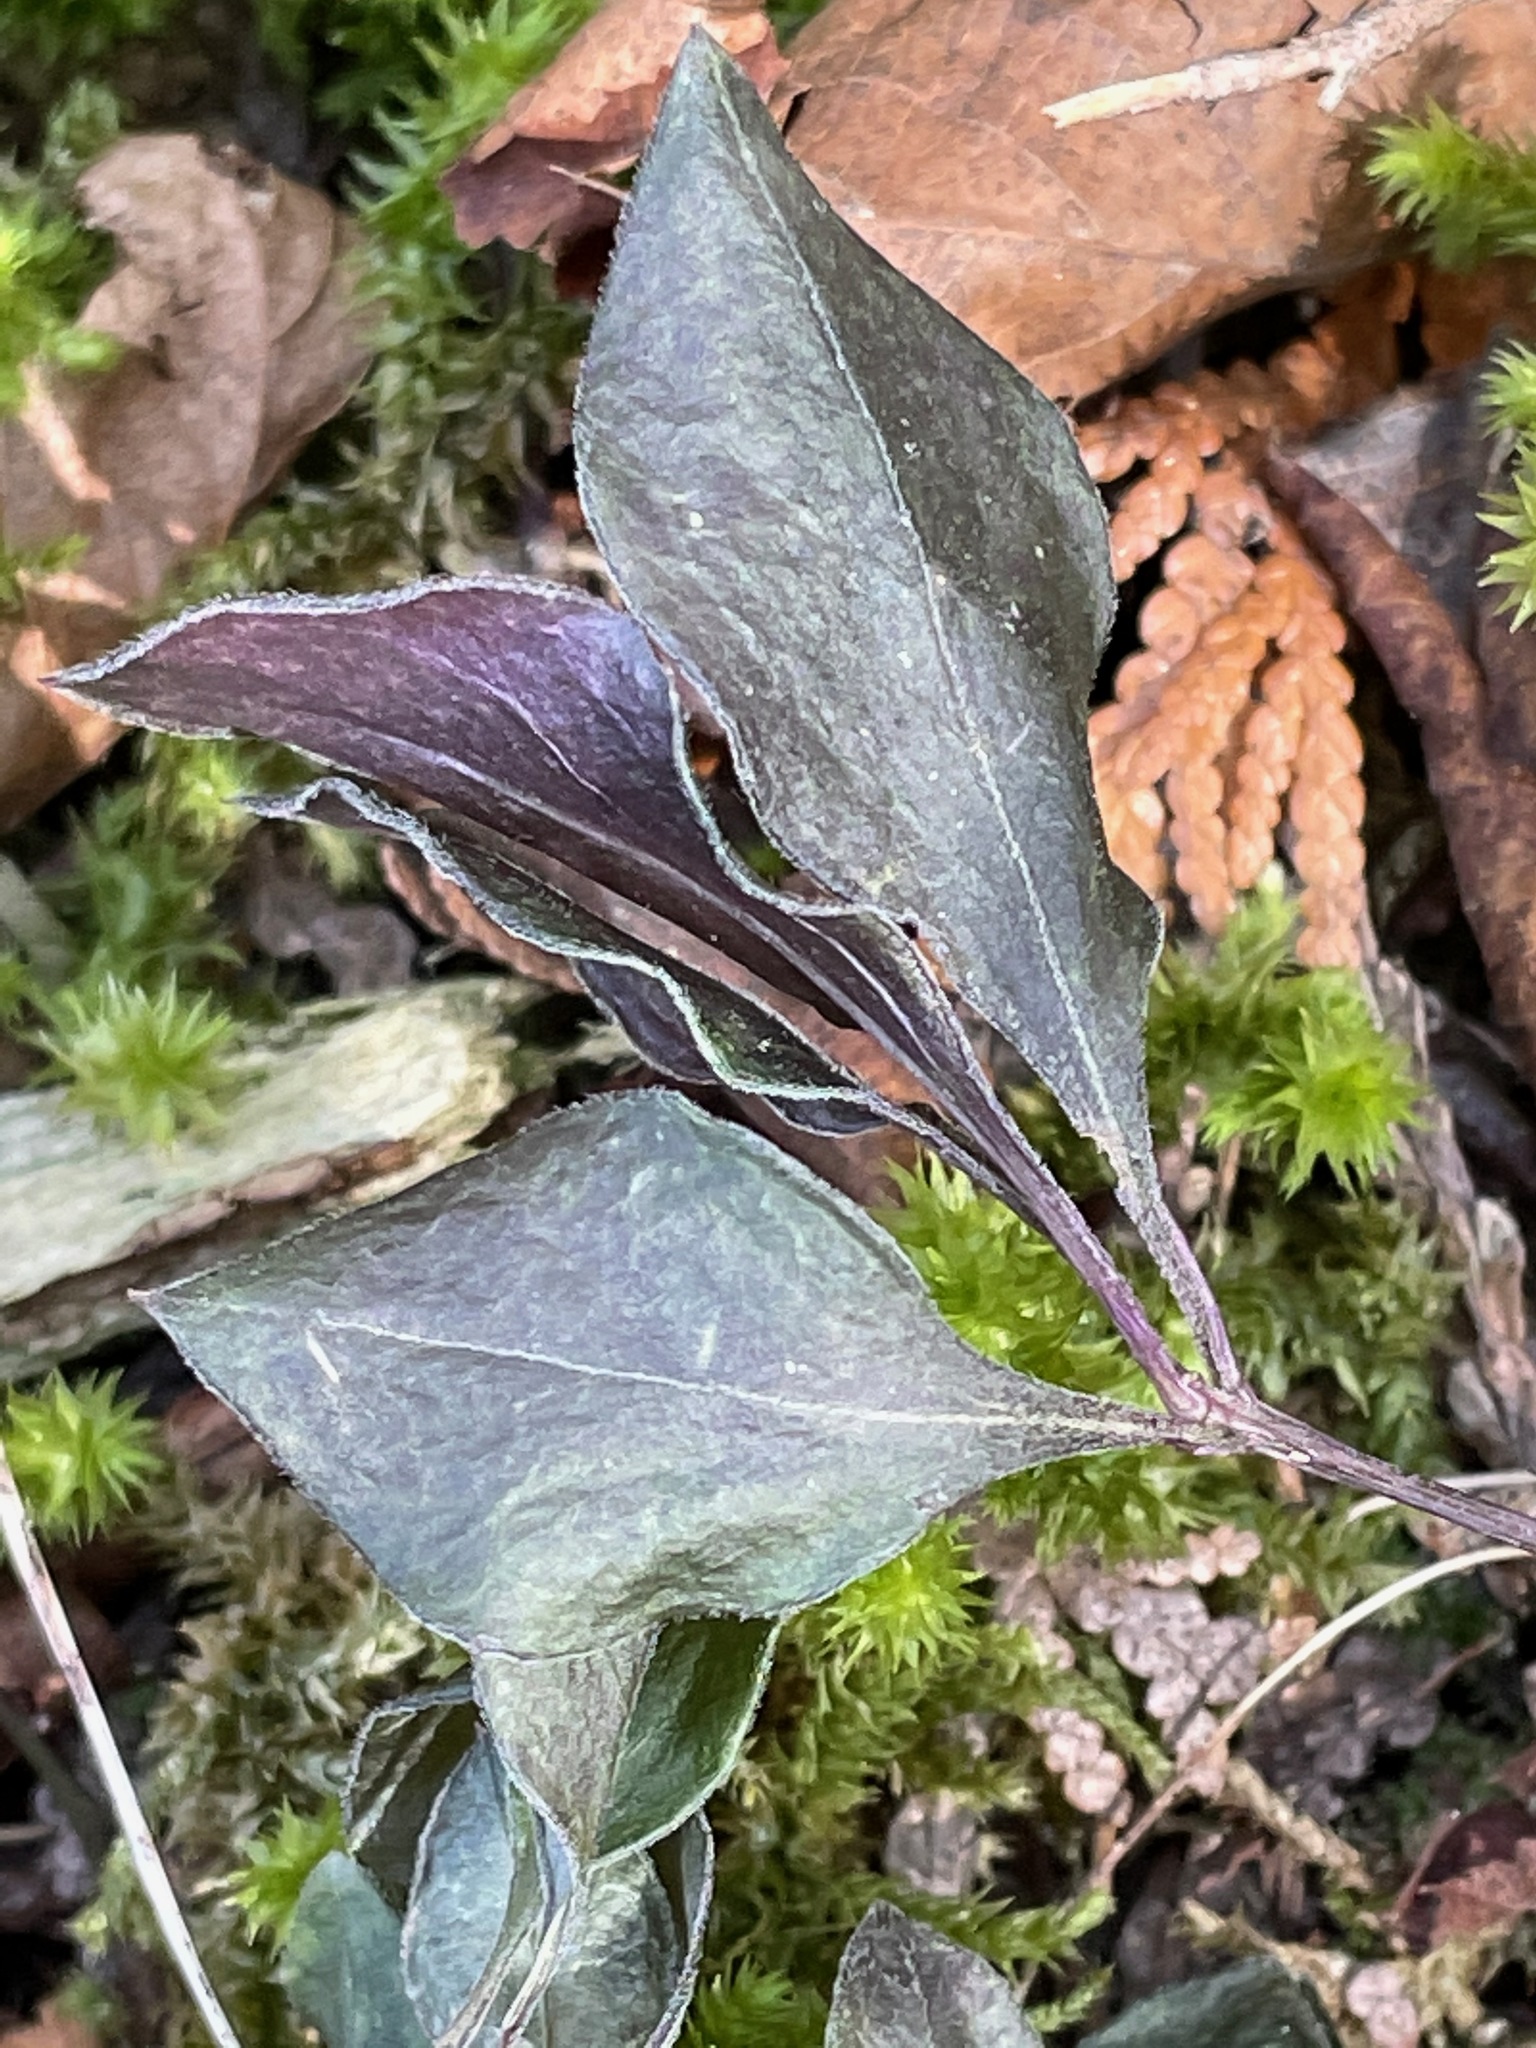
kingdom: Plantae
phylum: Tracheophyta
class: Magnoliopsida
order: Fabales
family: Polygalaceae
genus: Polygaloides
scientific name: Polygaloides paucifolia
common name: Bird-on-the-wing
